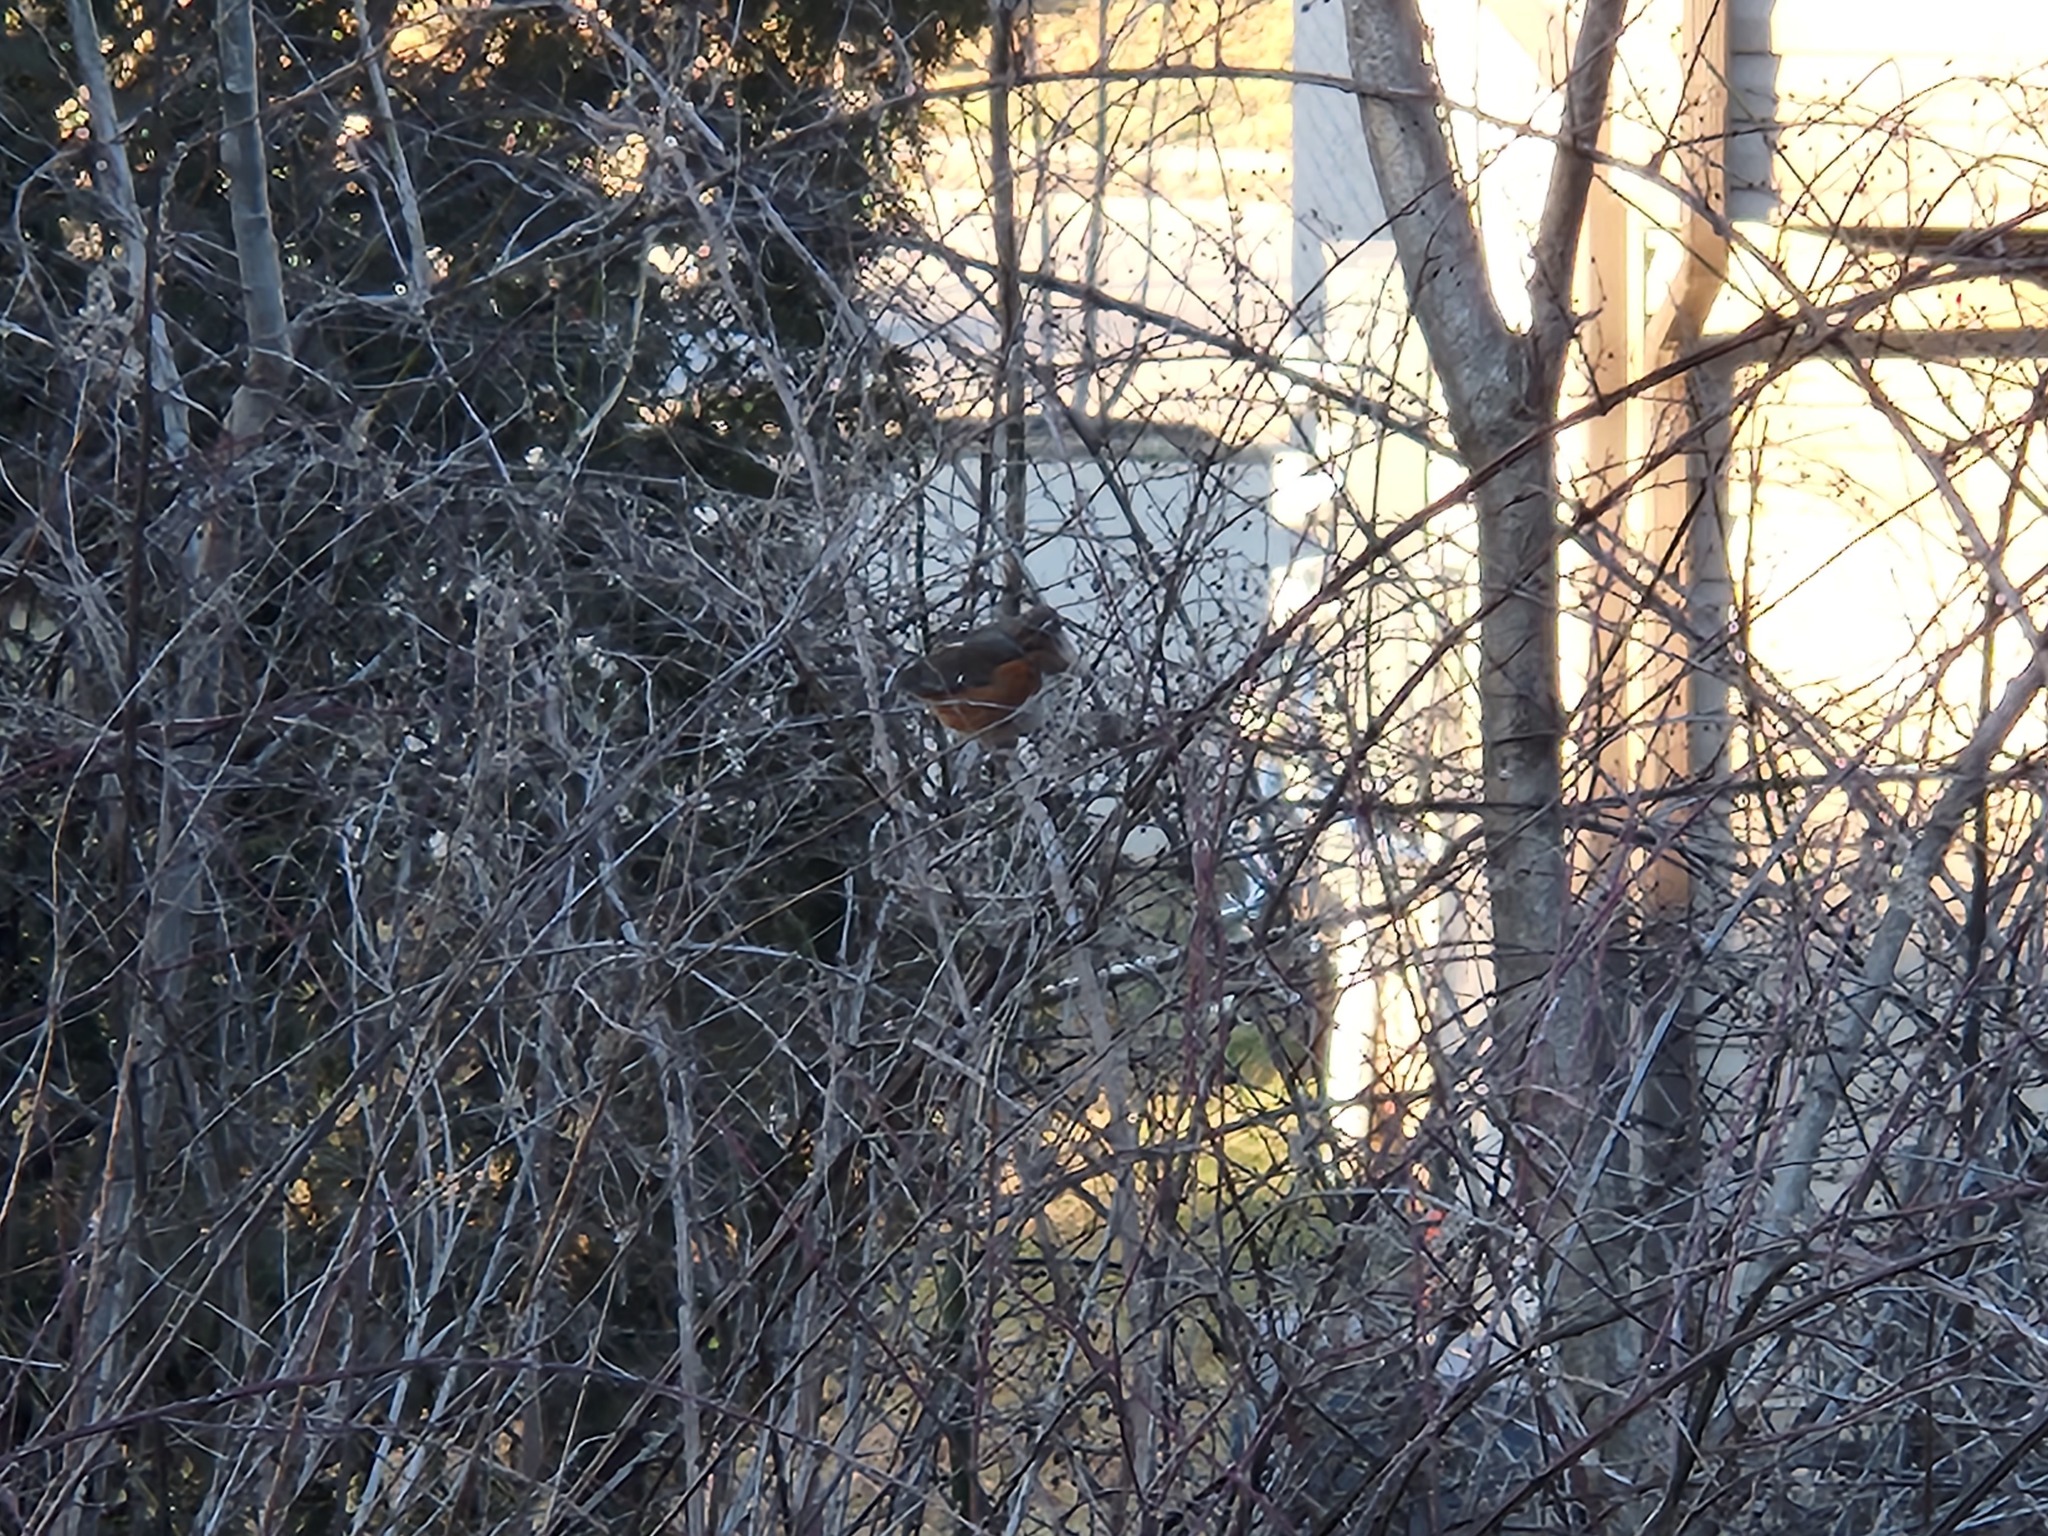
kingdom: Animalia
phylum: Chordata
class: Aves
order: Passeriformes
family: Passerellidae
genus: Pipilo
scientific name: Pipilo erythrophthalmus
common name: Eastern towhee
